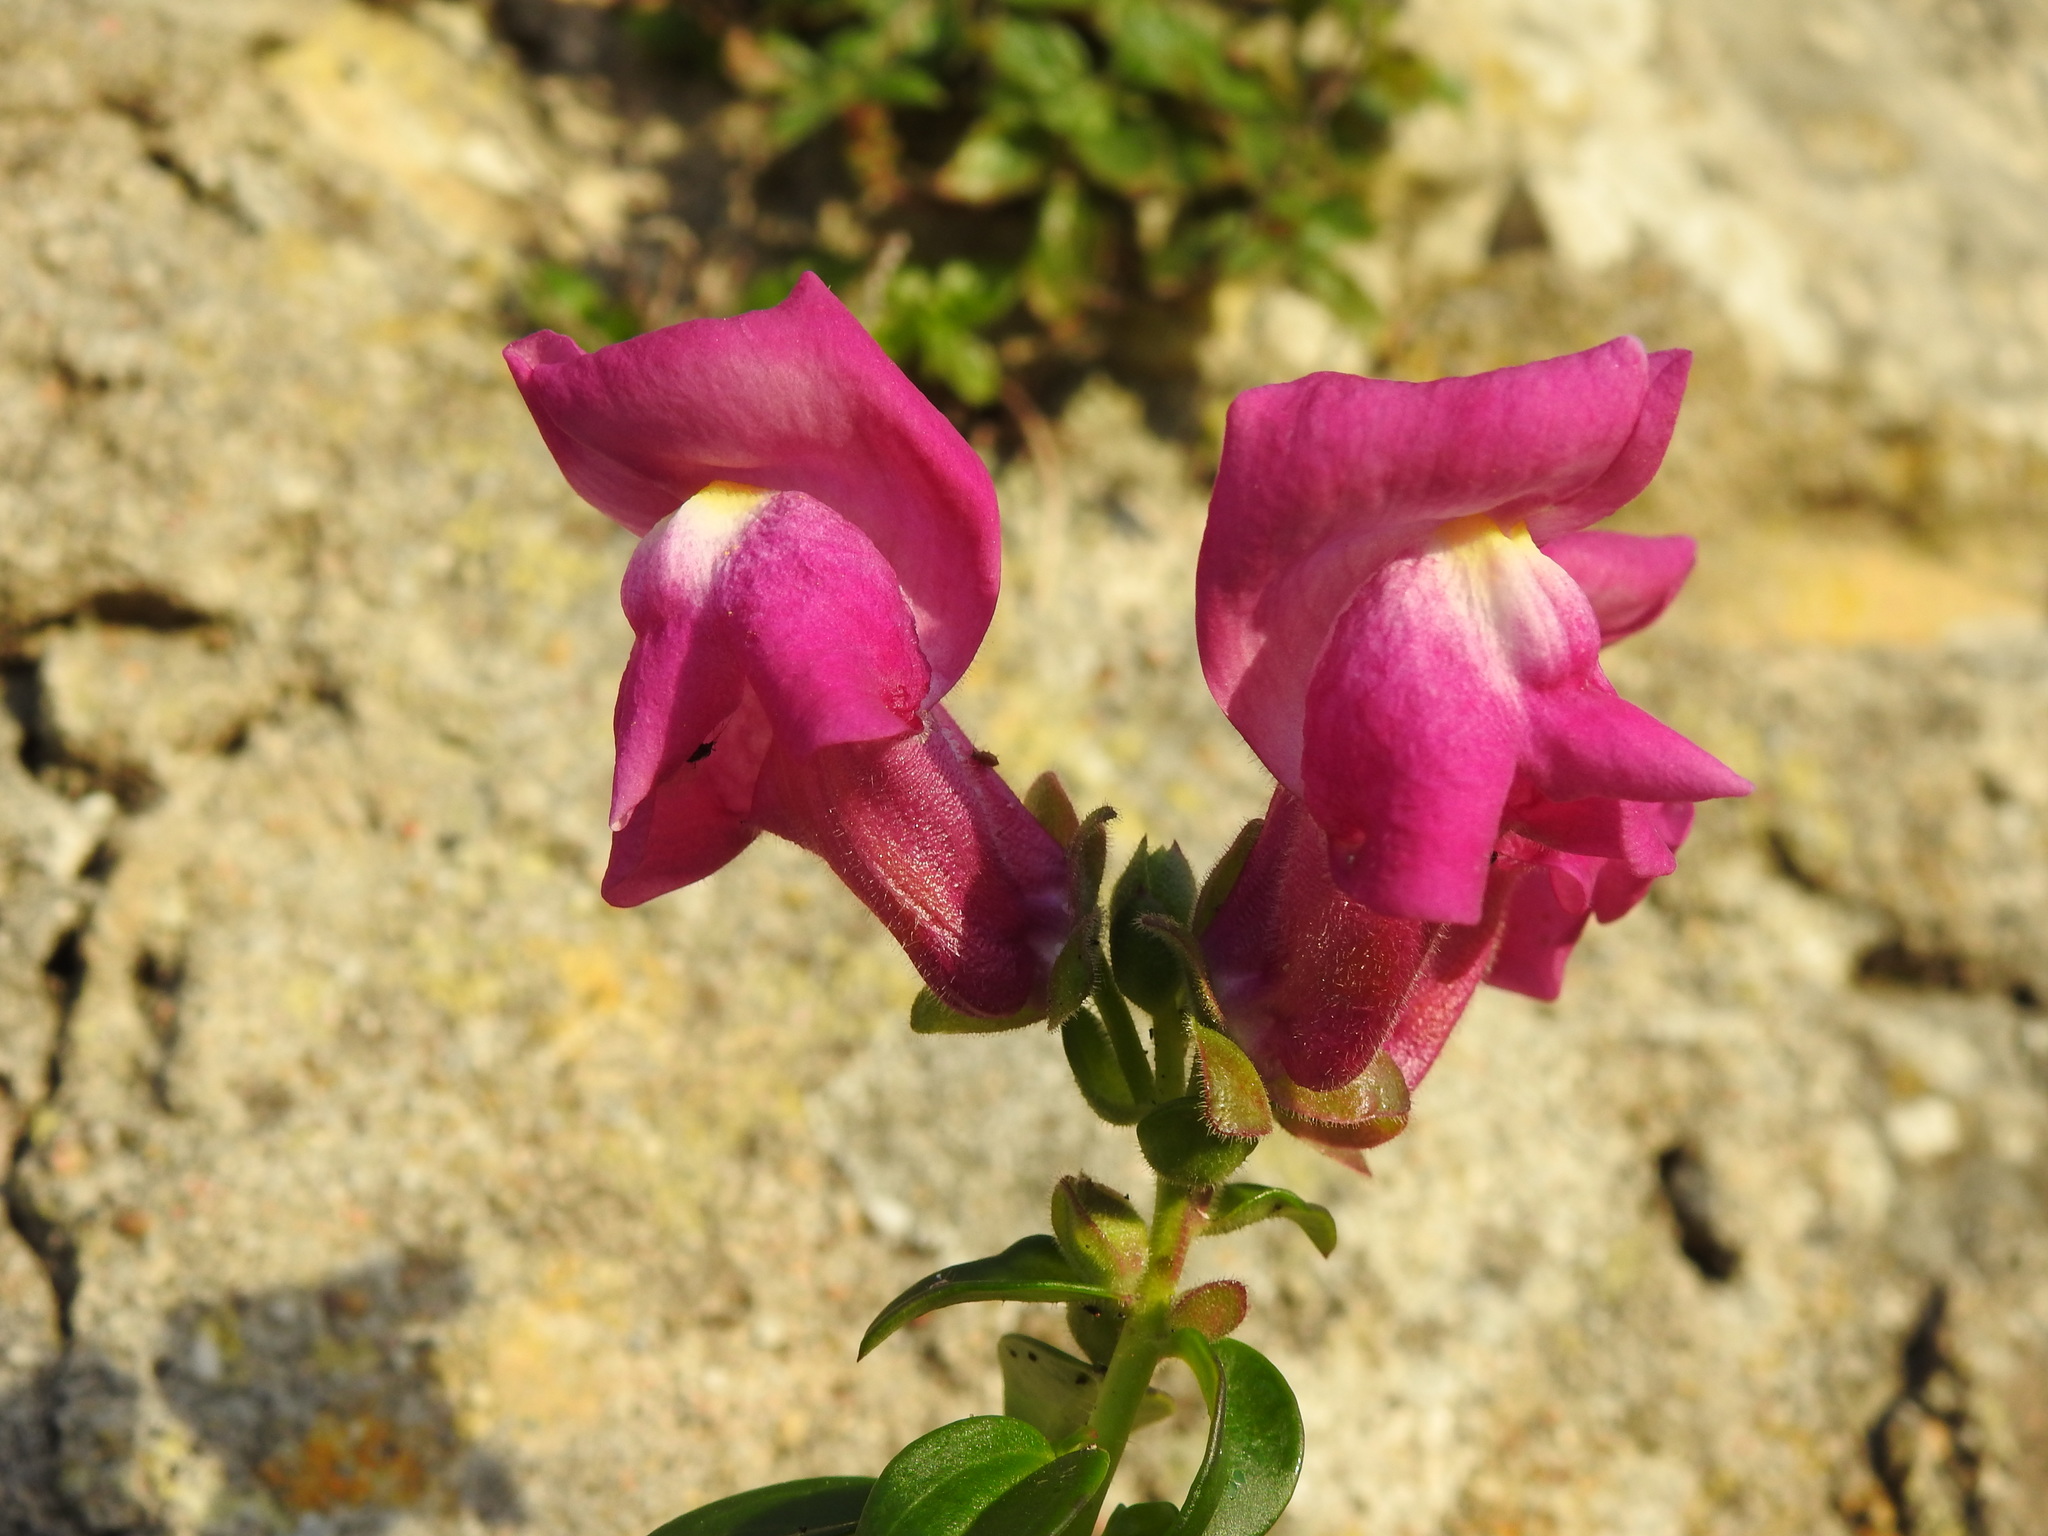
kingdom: Plantae
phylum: Tracheophyta
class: Magnoliopsida
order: Lamiales
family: Plantaginaceae
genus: Antirrhinum
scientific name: Antirrhinum cirrhigerum
